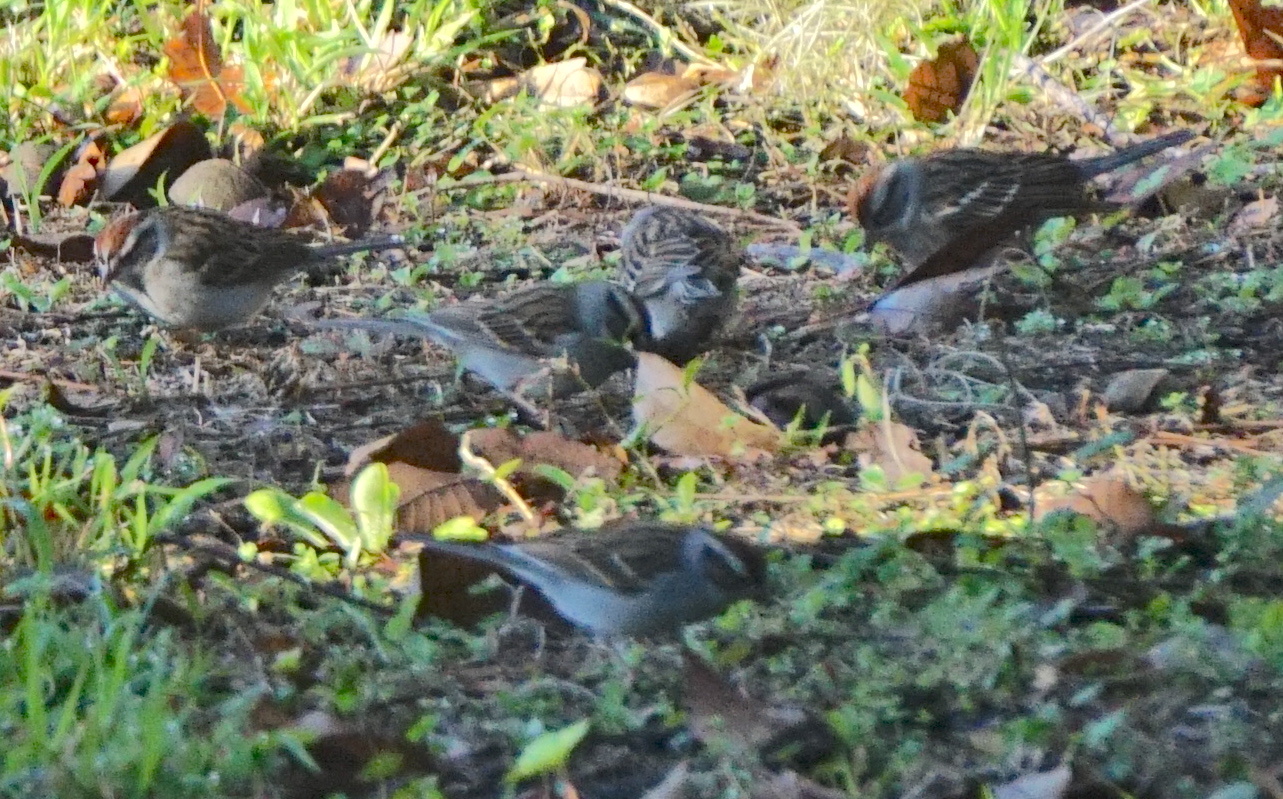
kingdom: Animalia
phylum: Chordata
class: Aves
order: Passeriformes
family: Passerellidae
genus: Spizella
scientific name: Spizella passerina
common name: Chipping sparrow
